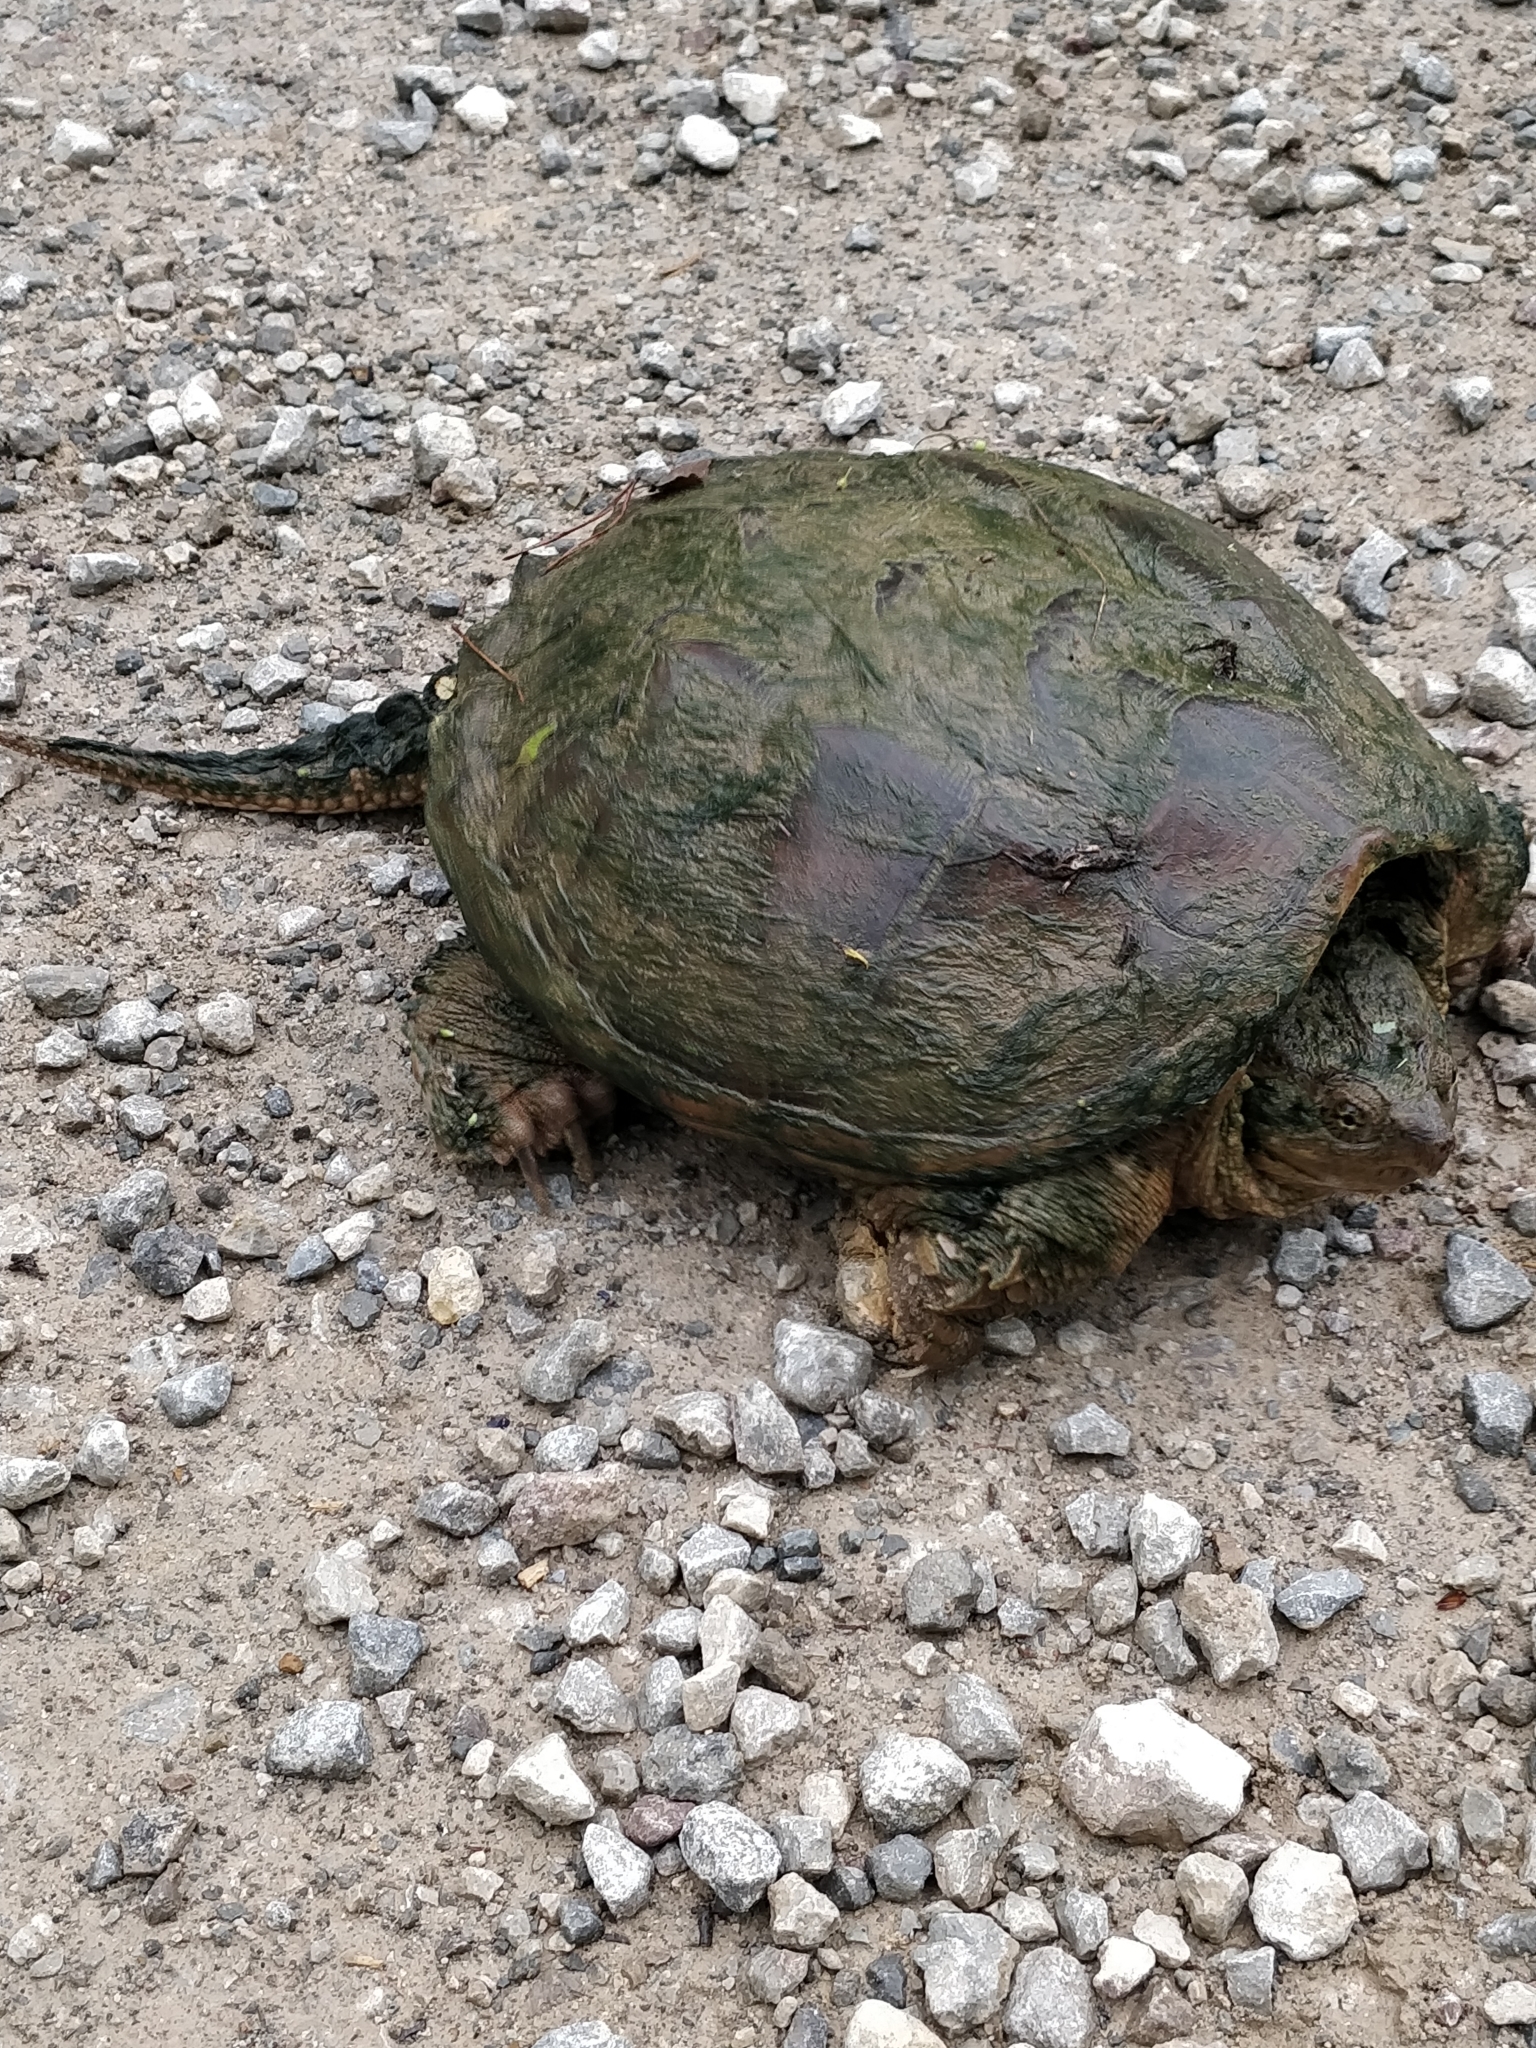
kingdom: Animalia
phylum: Chordata
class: Testudines
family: Chelydridae
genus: Chelydra
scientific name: Chelydra serpentina
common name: Common snapping turtle
